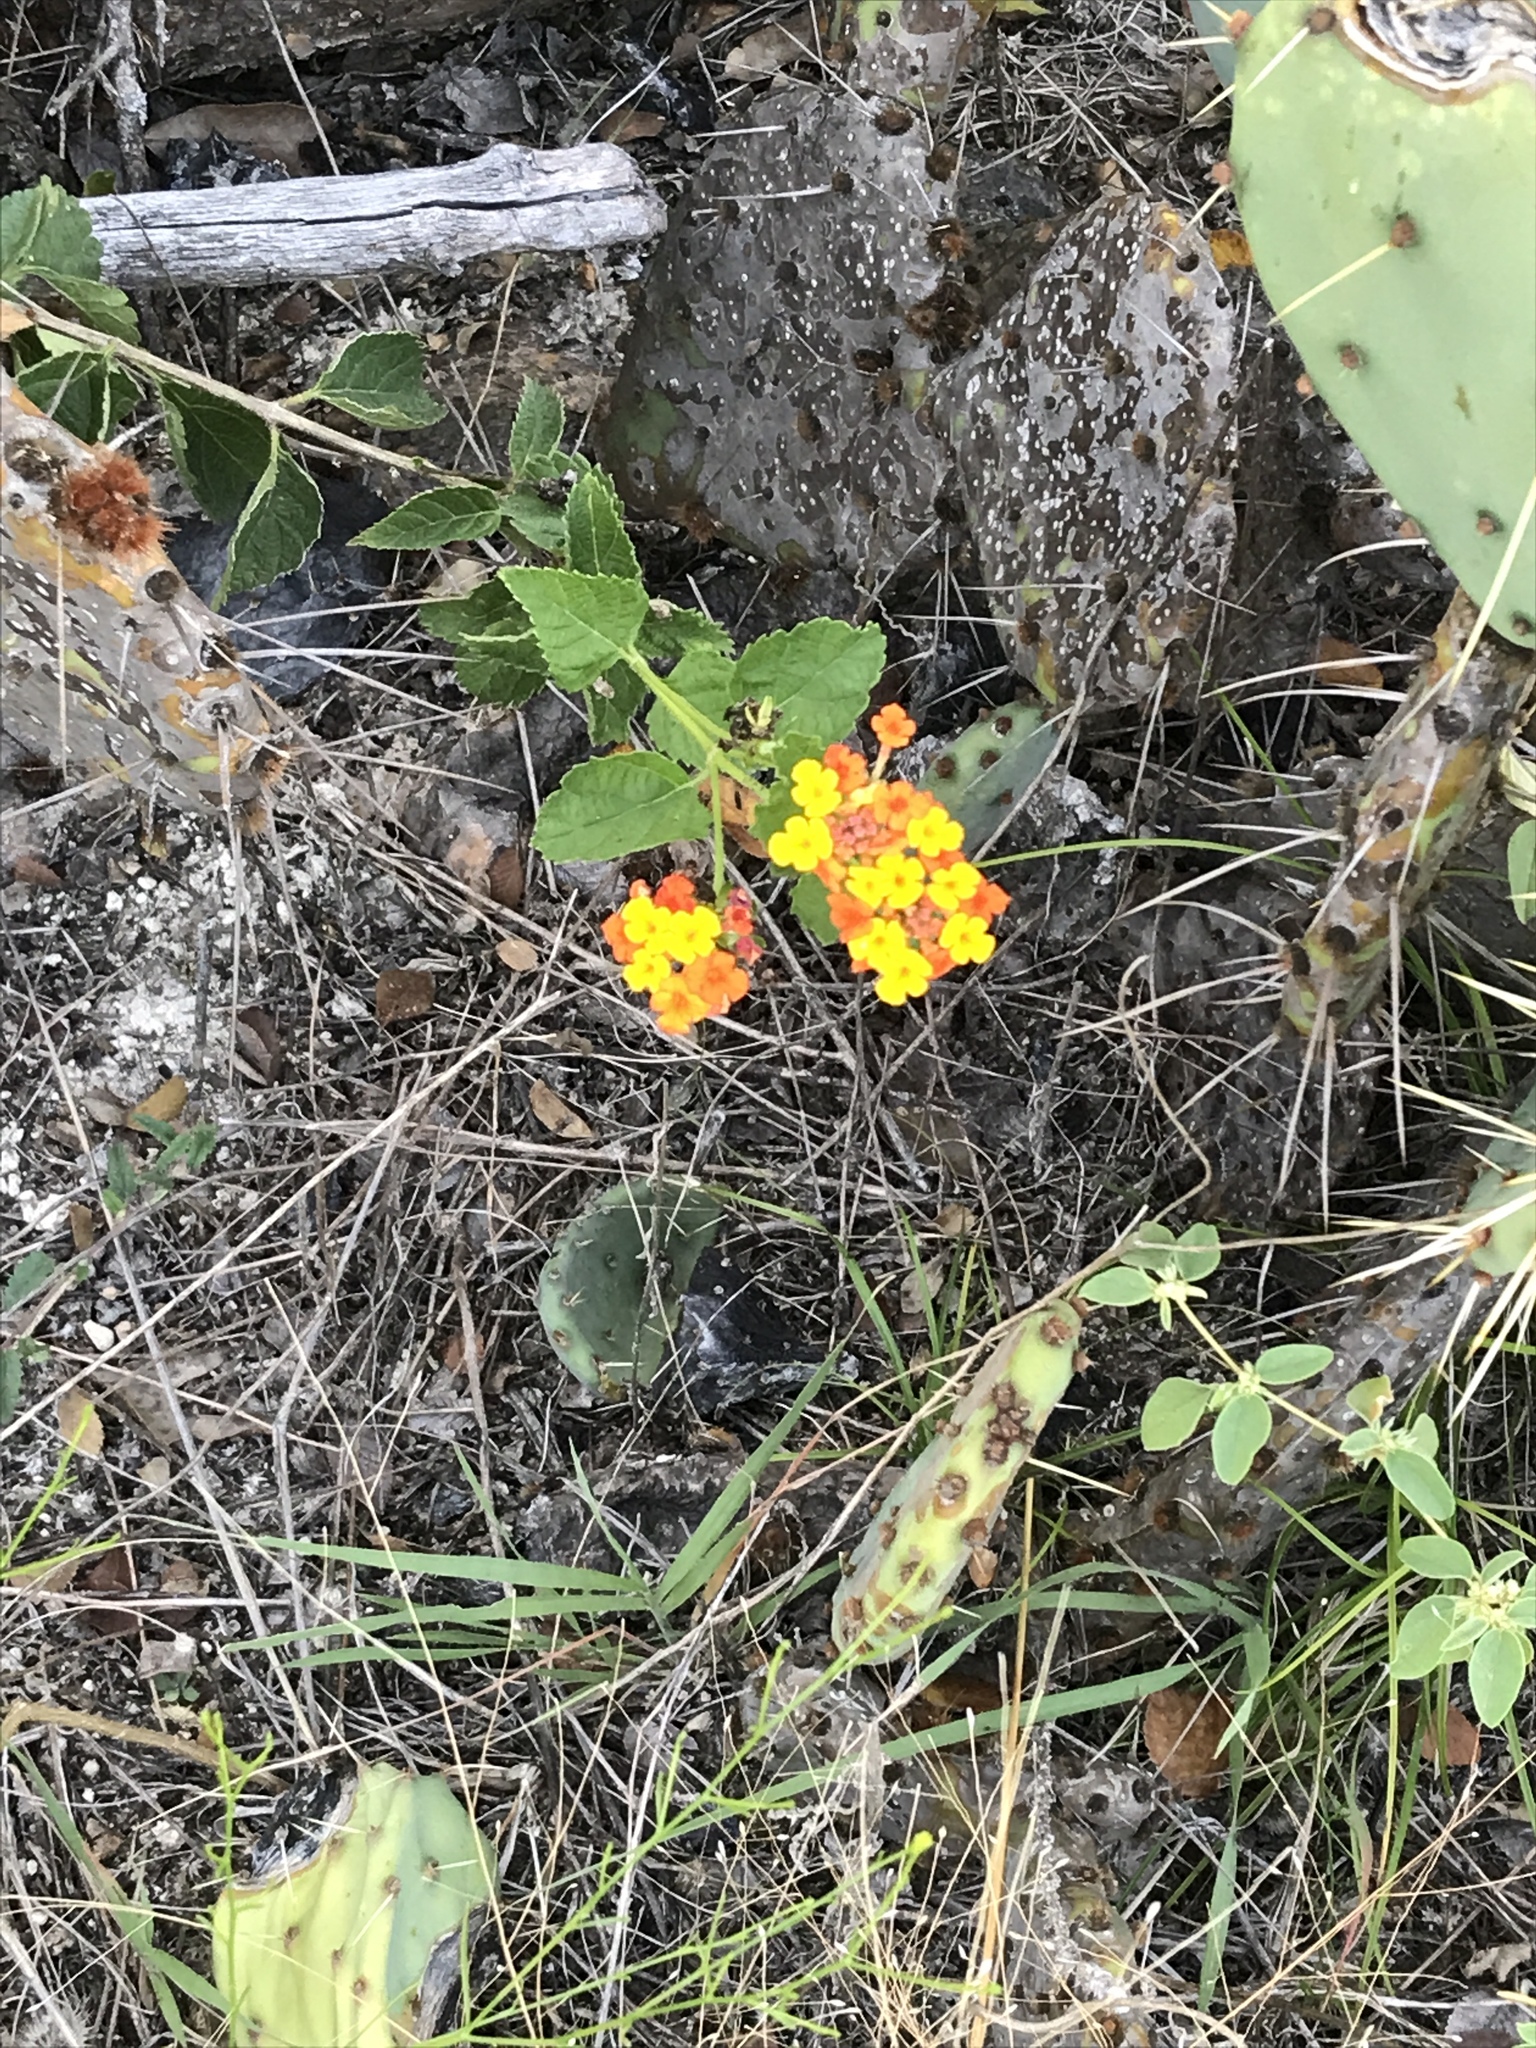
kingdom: Plantae
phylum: Tracheophyta
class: Magnoliopsida
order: Lamiales
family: Verbenaceae
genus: Lantana
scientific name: Lantana camara
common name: Lantana
